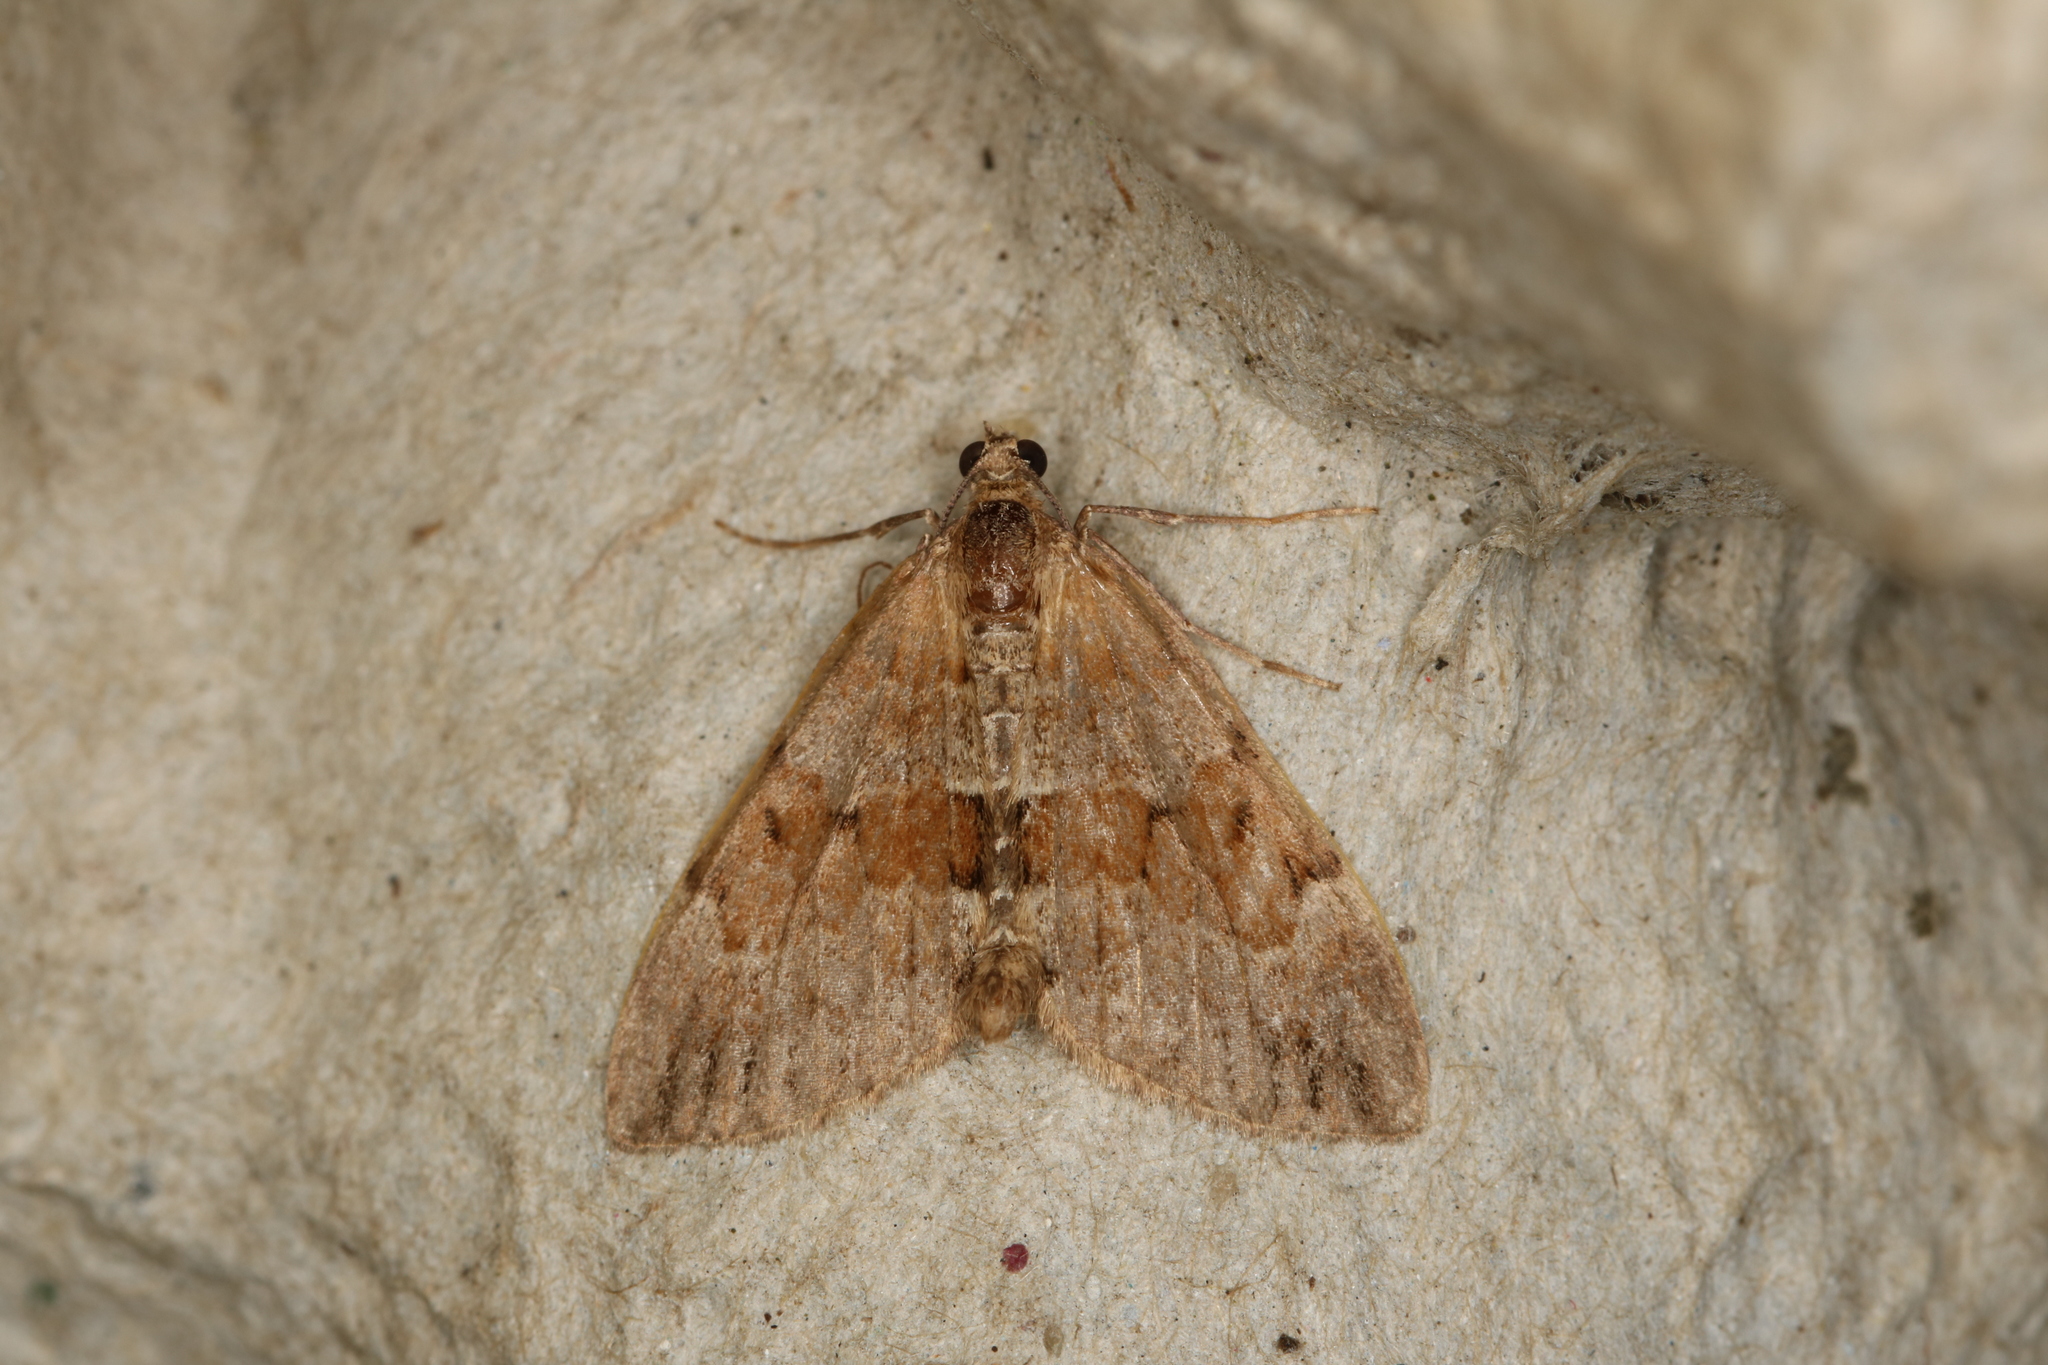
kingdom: Animalia
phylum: Arthropoda
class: Insecta
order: Lepidoptera
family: Geometridae
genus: Thera
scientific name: Thera obeliscata
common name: Grey pine carpet
